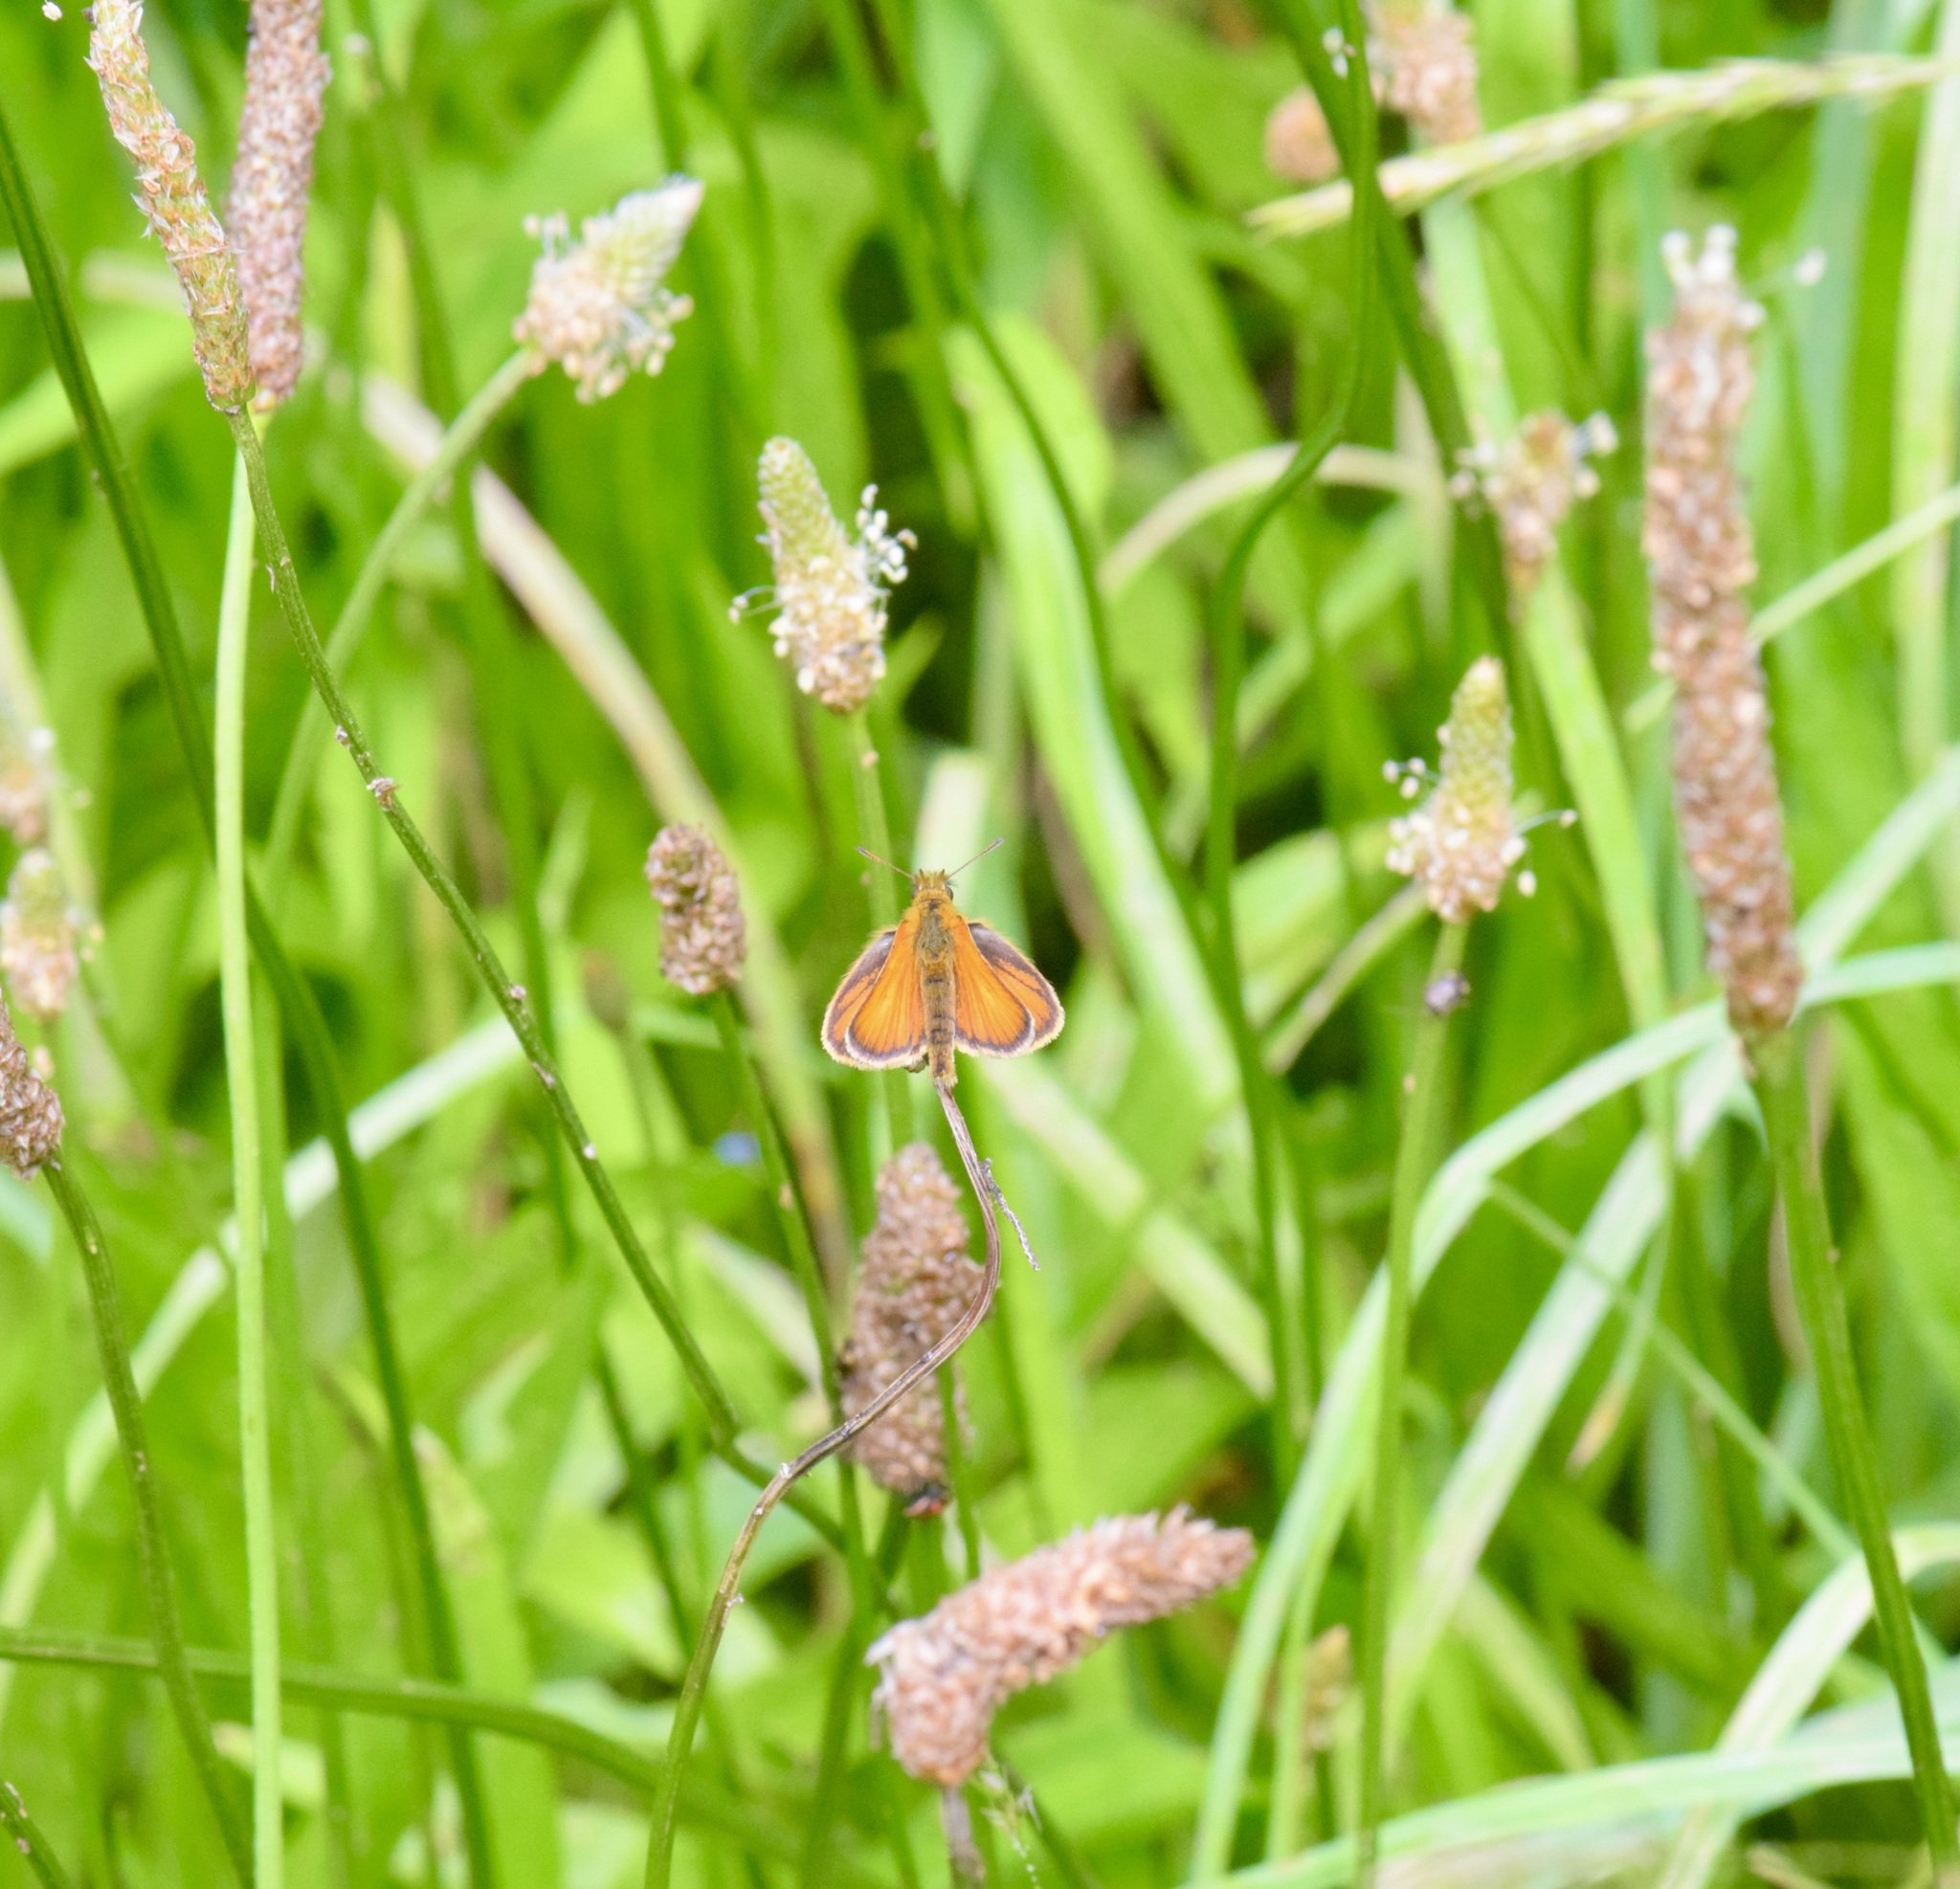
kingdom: Animalia
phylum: Arthropoda
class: Insecta
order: Lepidoptera
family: Hesperiidae
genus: Thymelicus
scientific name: Thymelicus lineola
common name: Essex skipper
